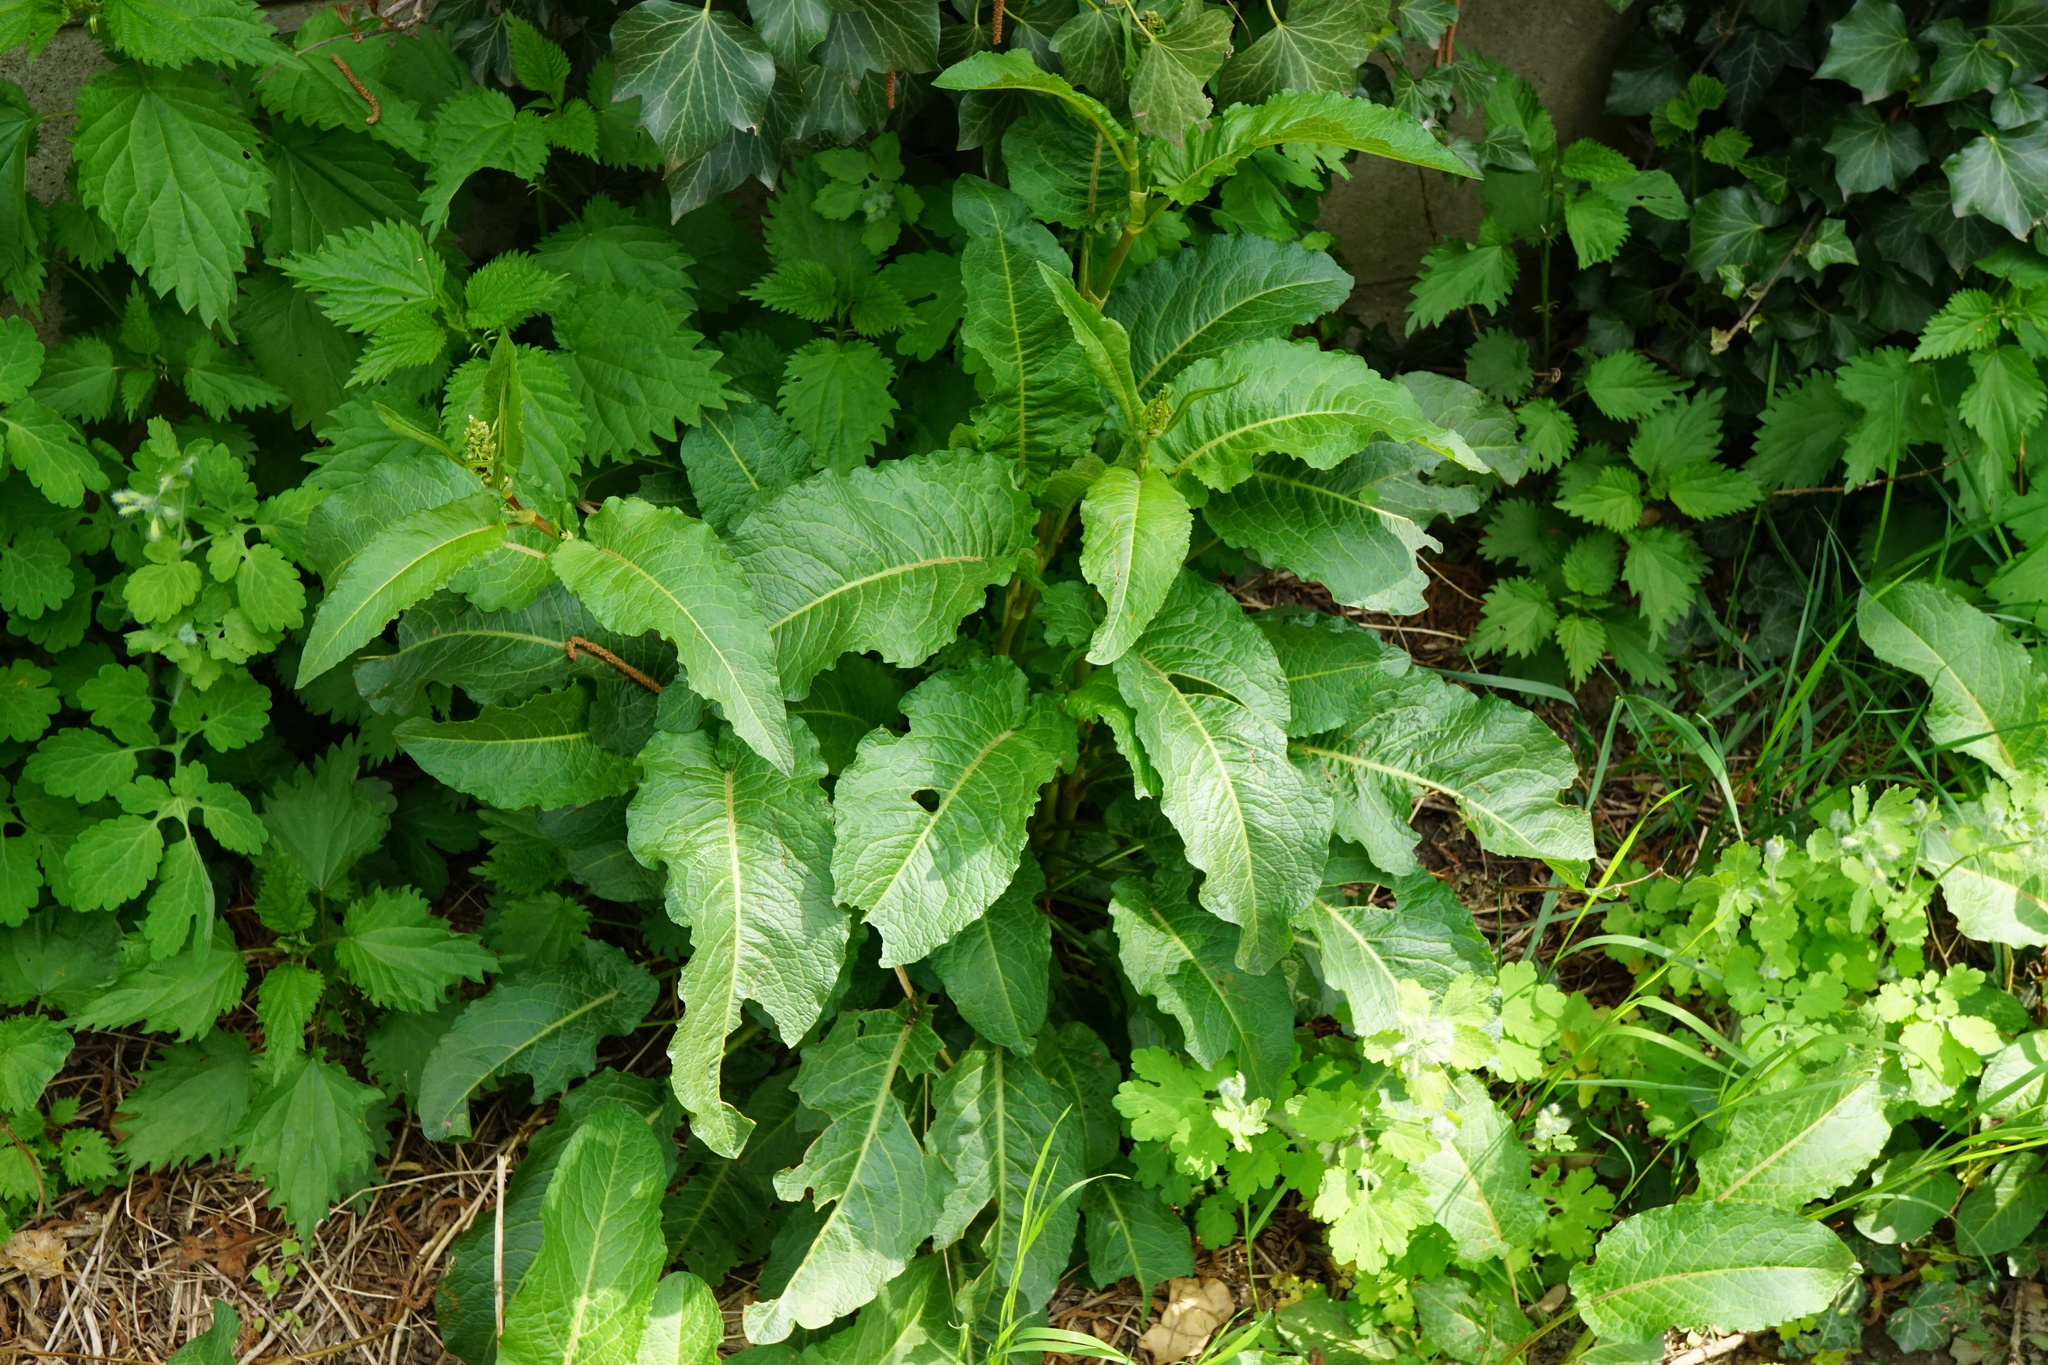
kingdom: Plantae
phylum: Tracheophyta
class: Magnoliopsida
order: Caryophyllales
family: Polygonaceae
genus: Rumex
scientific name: Rumex obtusifolius
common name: Bitter dock
